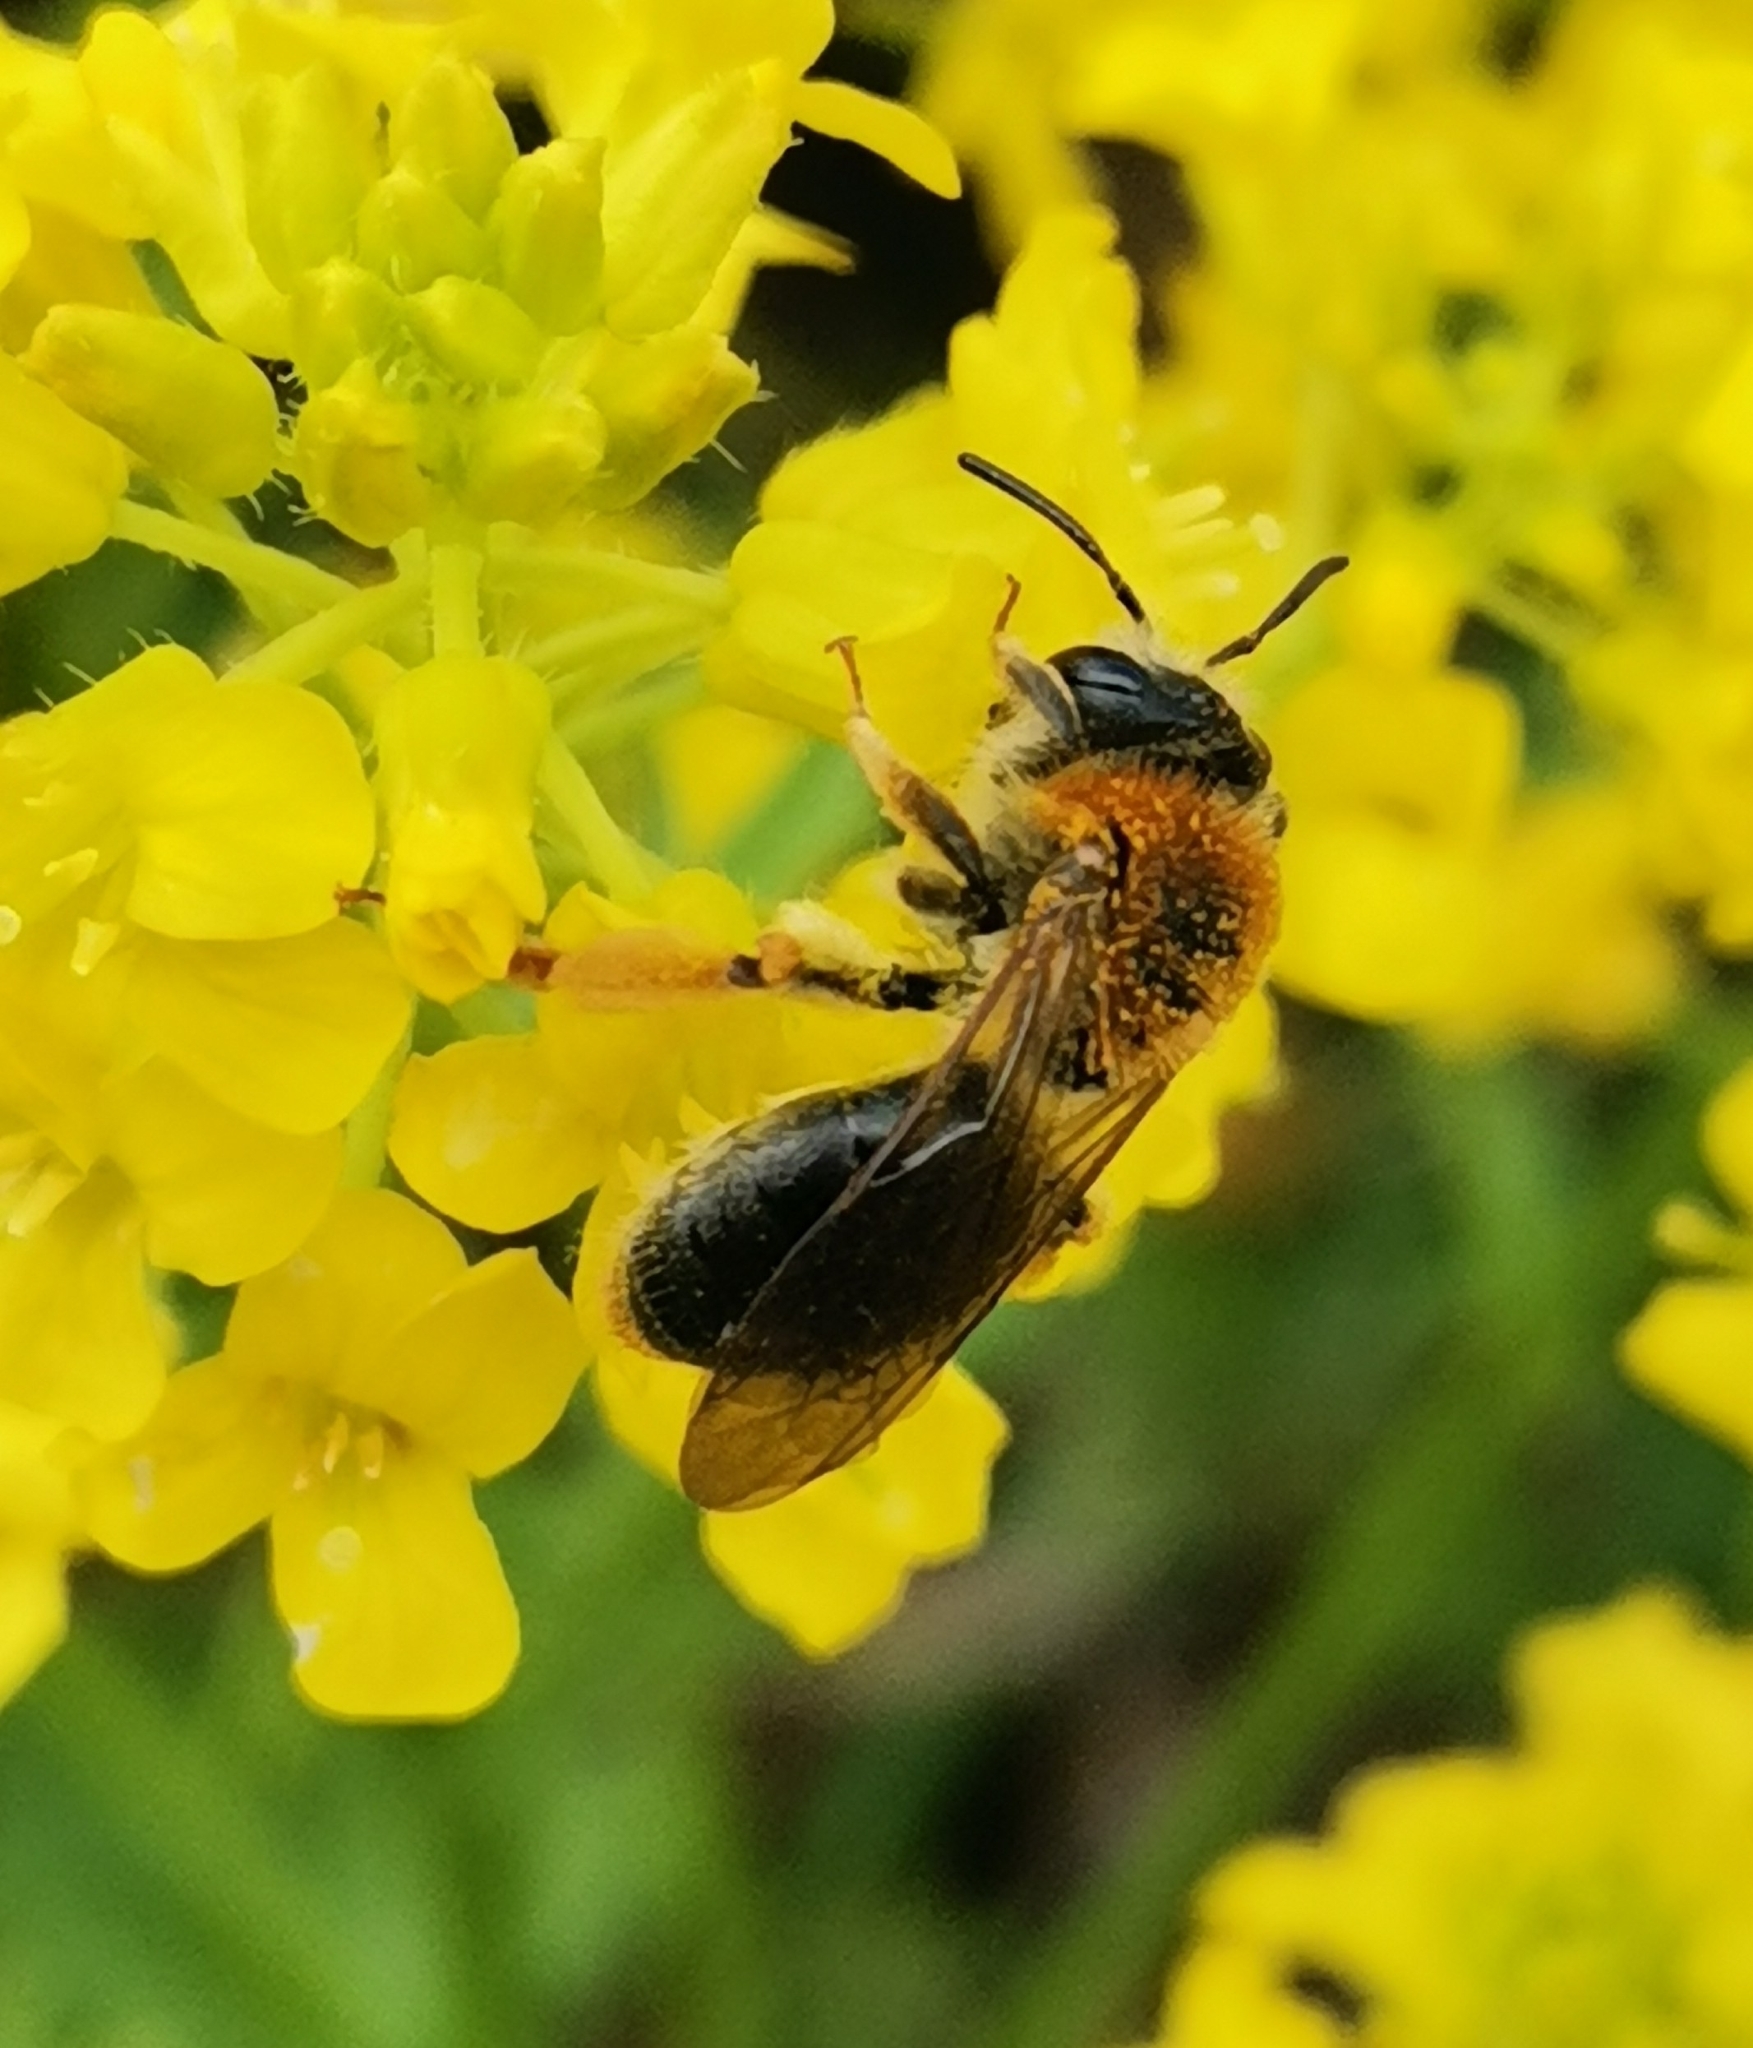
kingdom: Animalia
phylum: Arthropoda
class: Insecta
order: Hymenoptera
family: Andrenidae
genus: Andrena
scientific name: Andrena haemorrhoa
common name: Early mining bee
